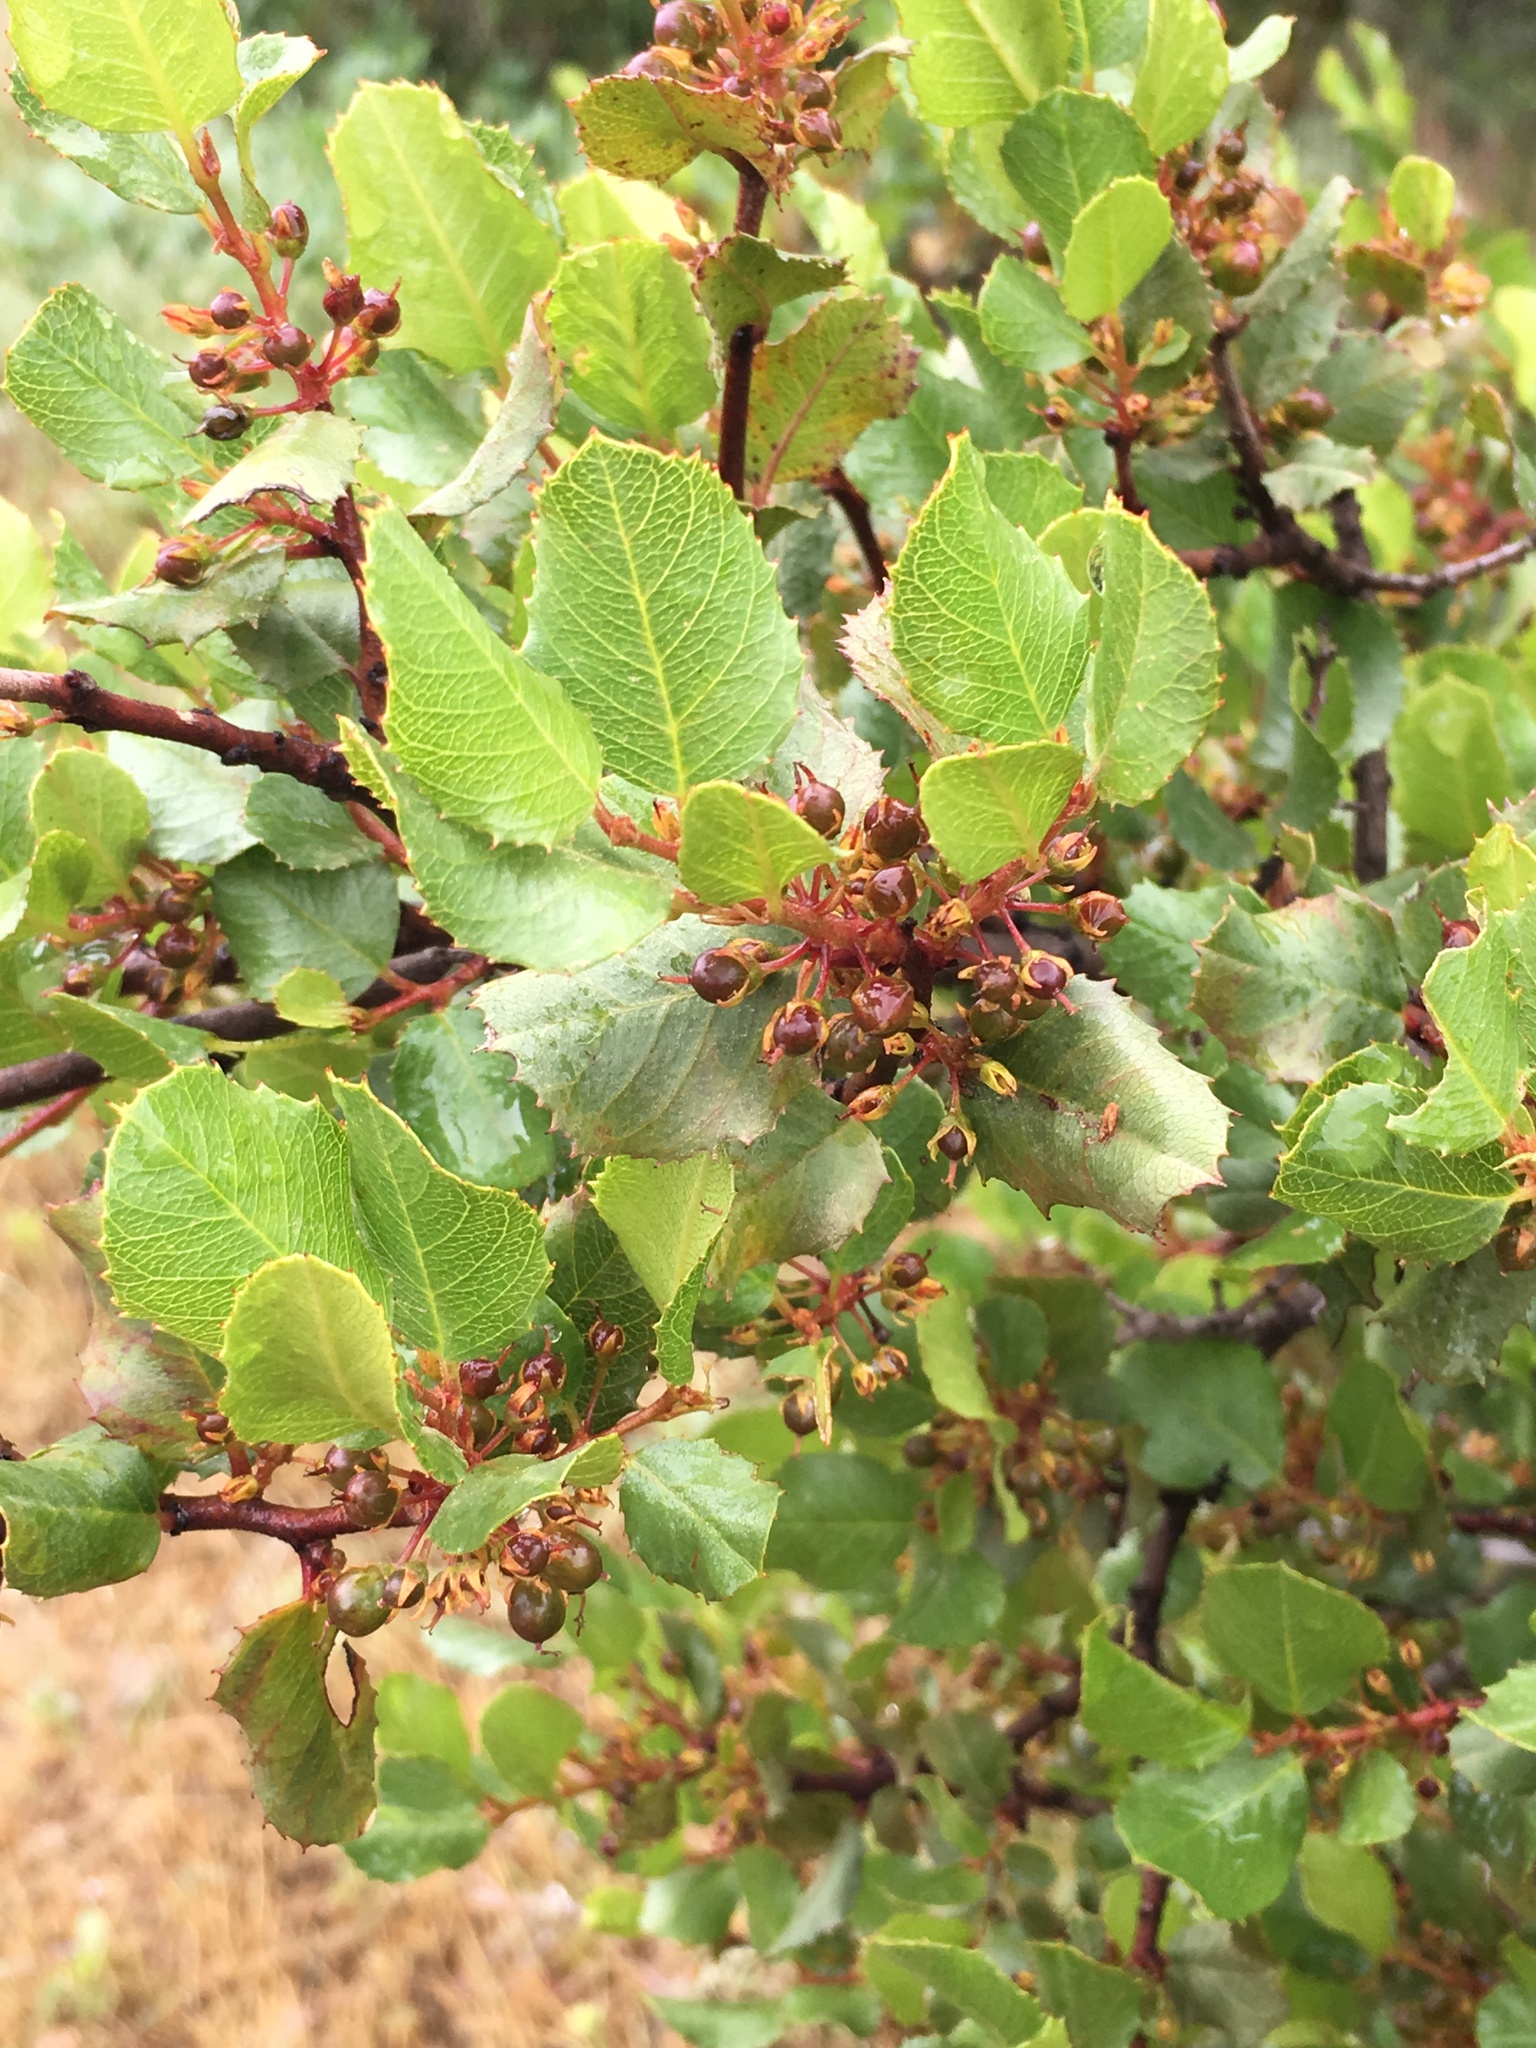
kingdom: Plantae
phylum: Tracheophyta
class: Magnoliopsida
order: Rosales
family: Rhamnaceae
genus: Endotropis
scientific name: Endotropis crocea
